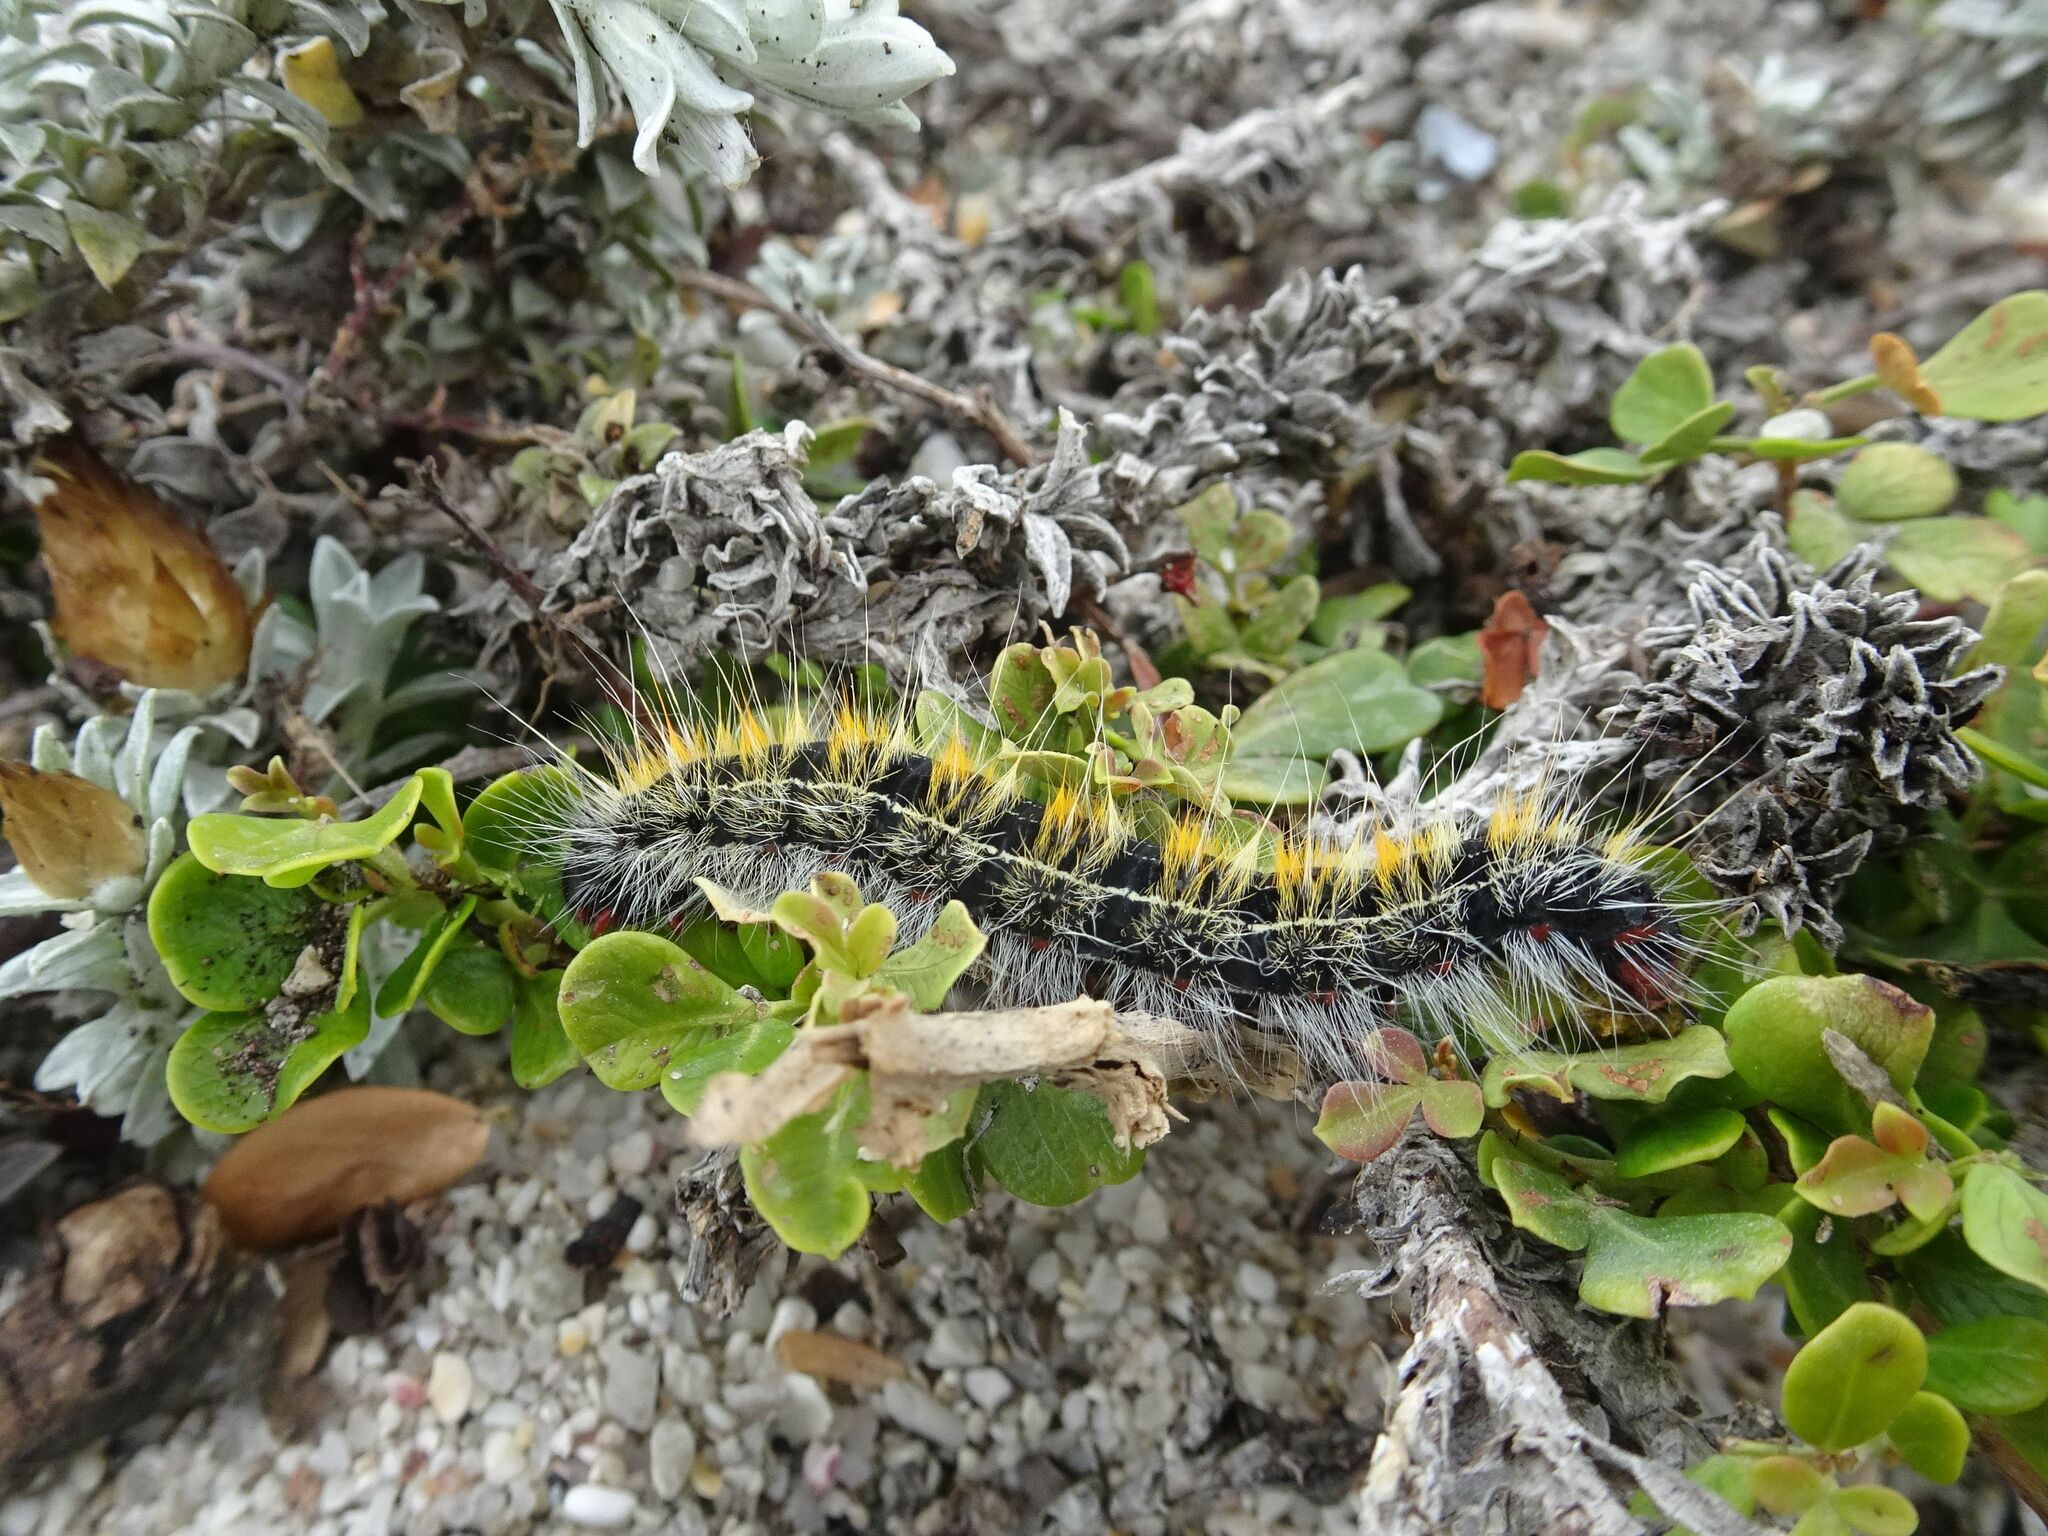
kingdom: Animalia
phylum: Arthropoda
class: Insecta
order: Lepidoptera
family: Lasiocampidae
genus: Bombycomorpha
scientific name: Bombycomorpha bifascia
